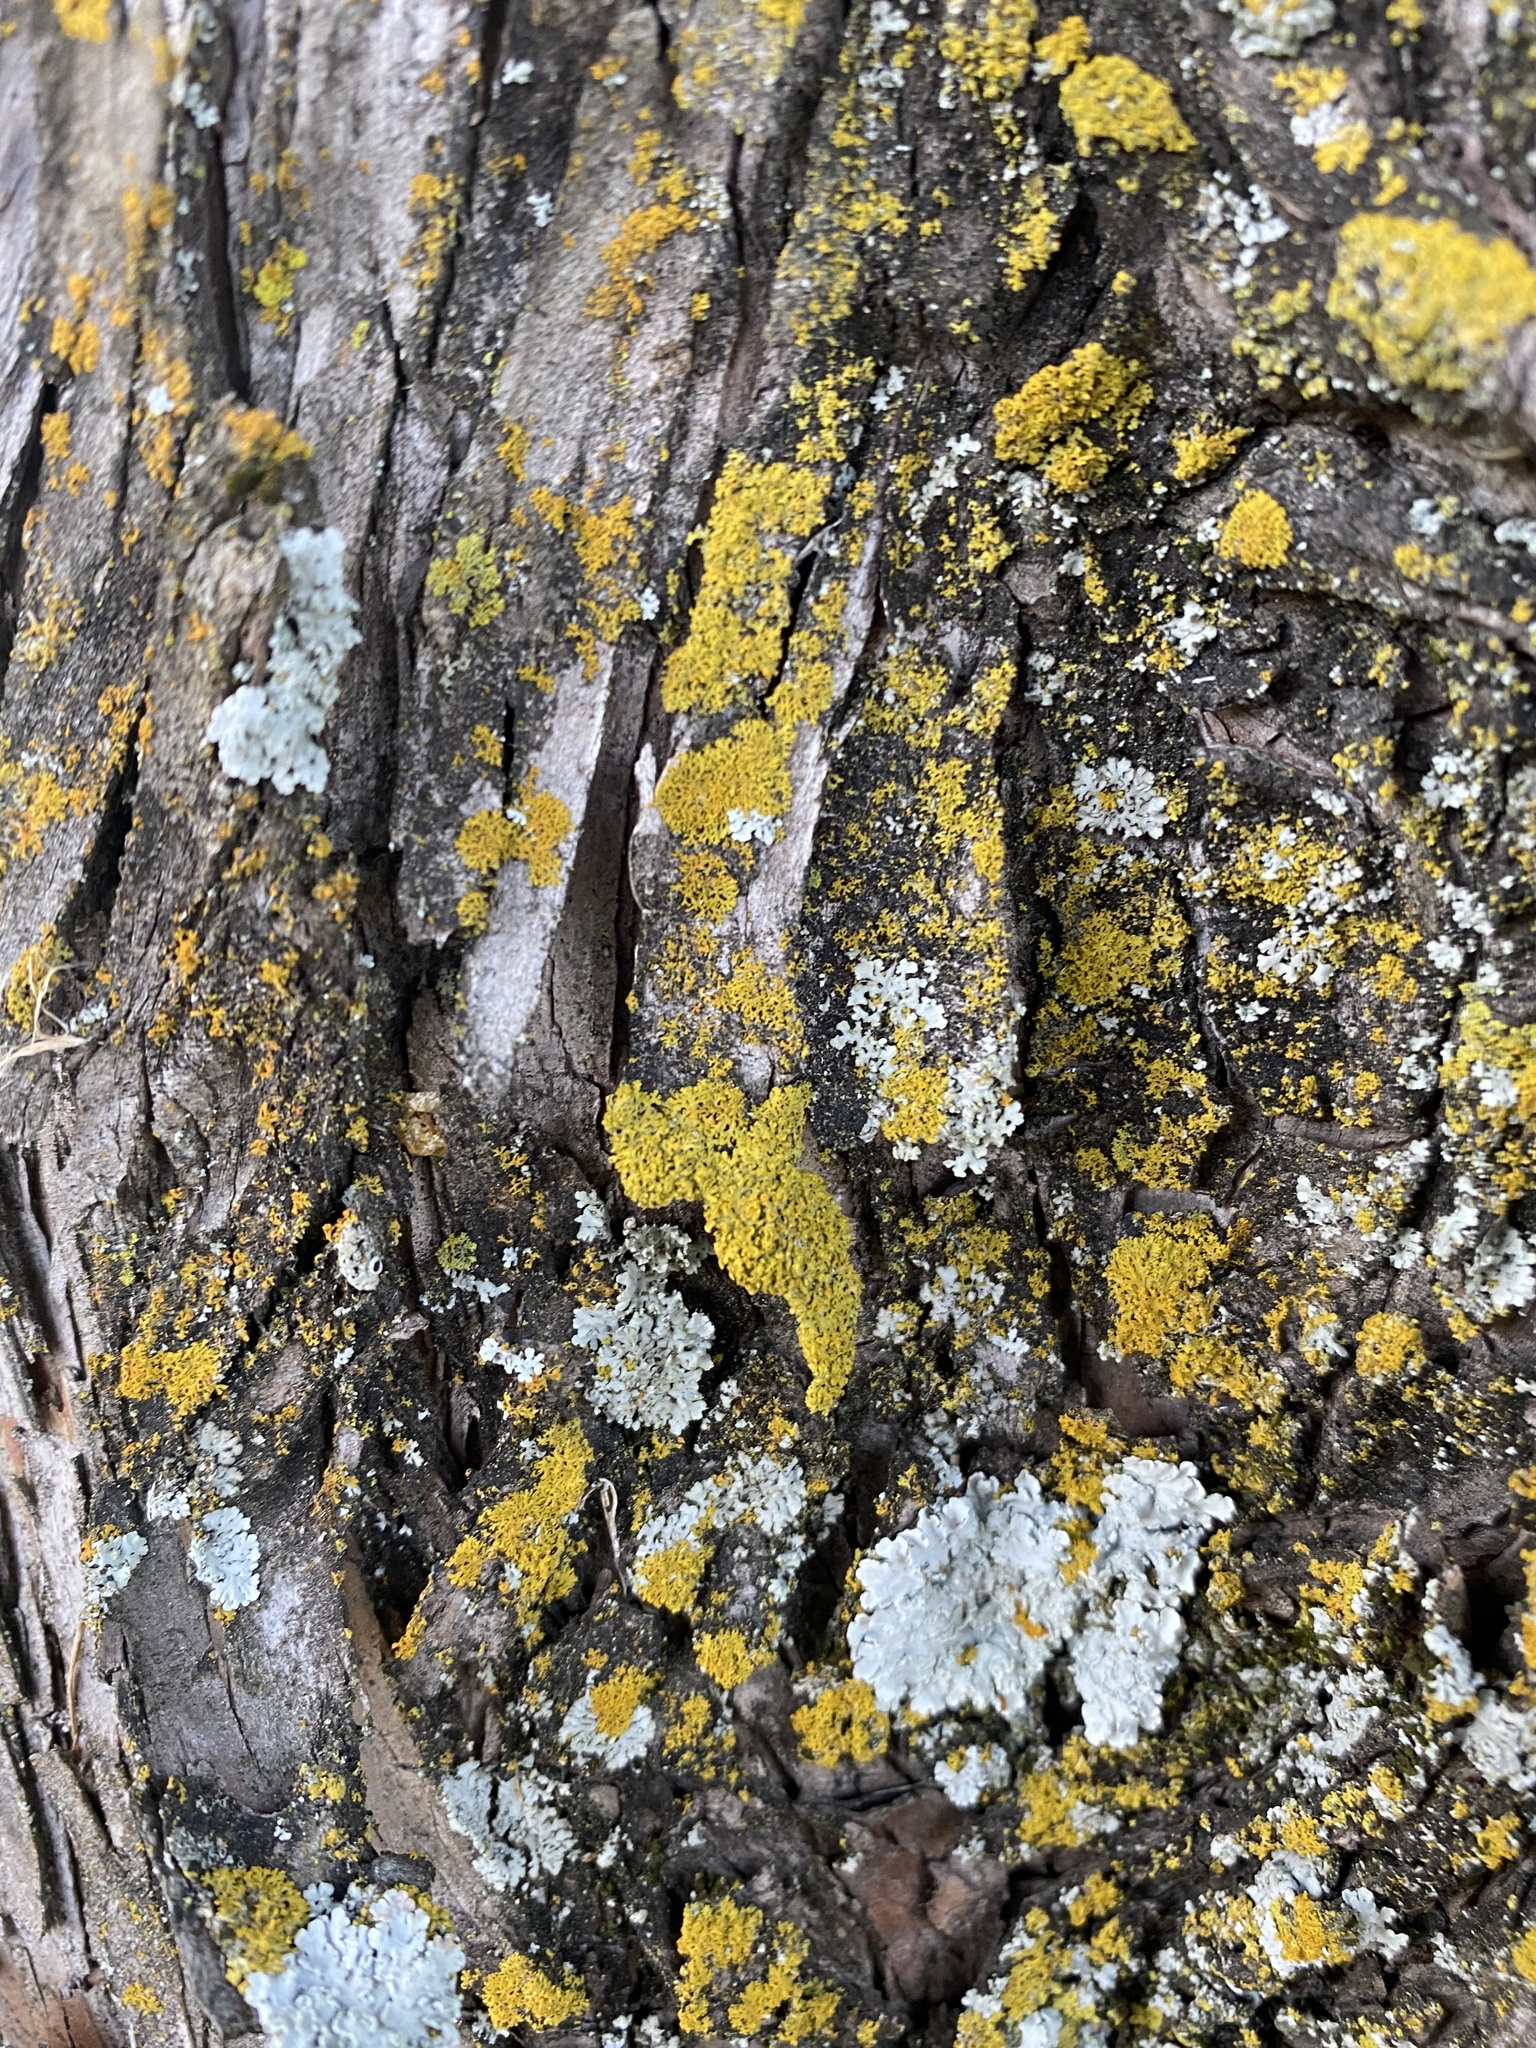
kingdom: Fungi
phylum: Ascomycota
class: Lecanoromycetes
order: Teloschistales
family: Teloschistaceae
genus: Gallowayella
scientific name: Gallowayella weberi
